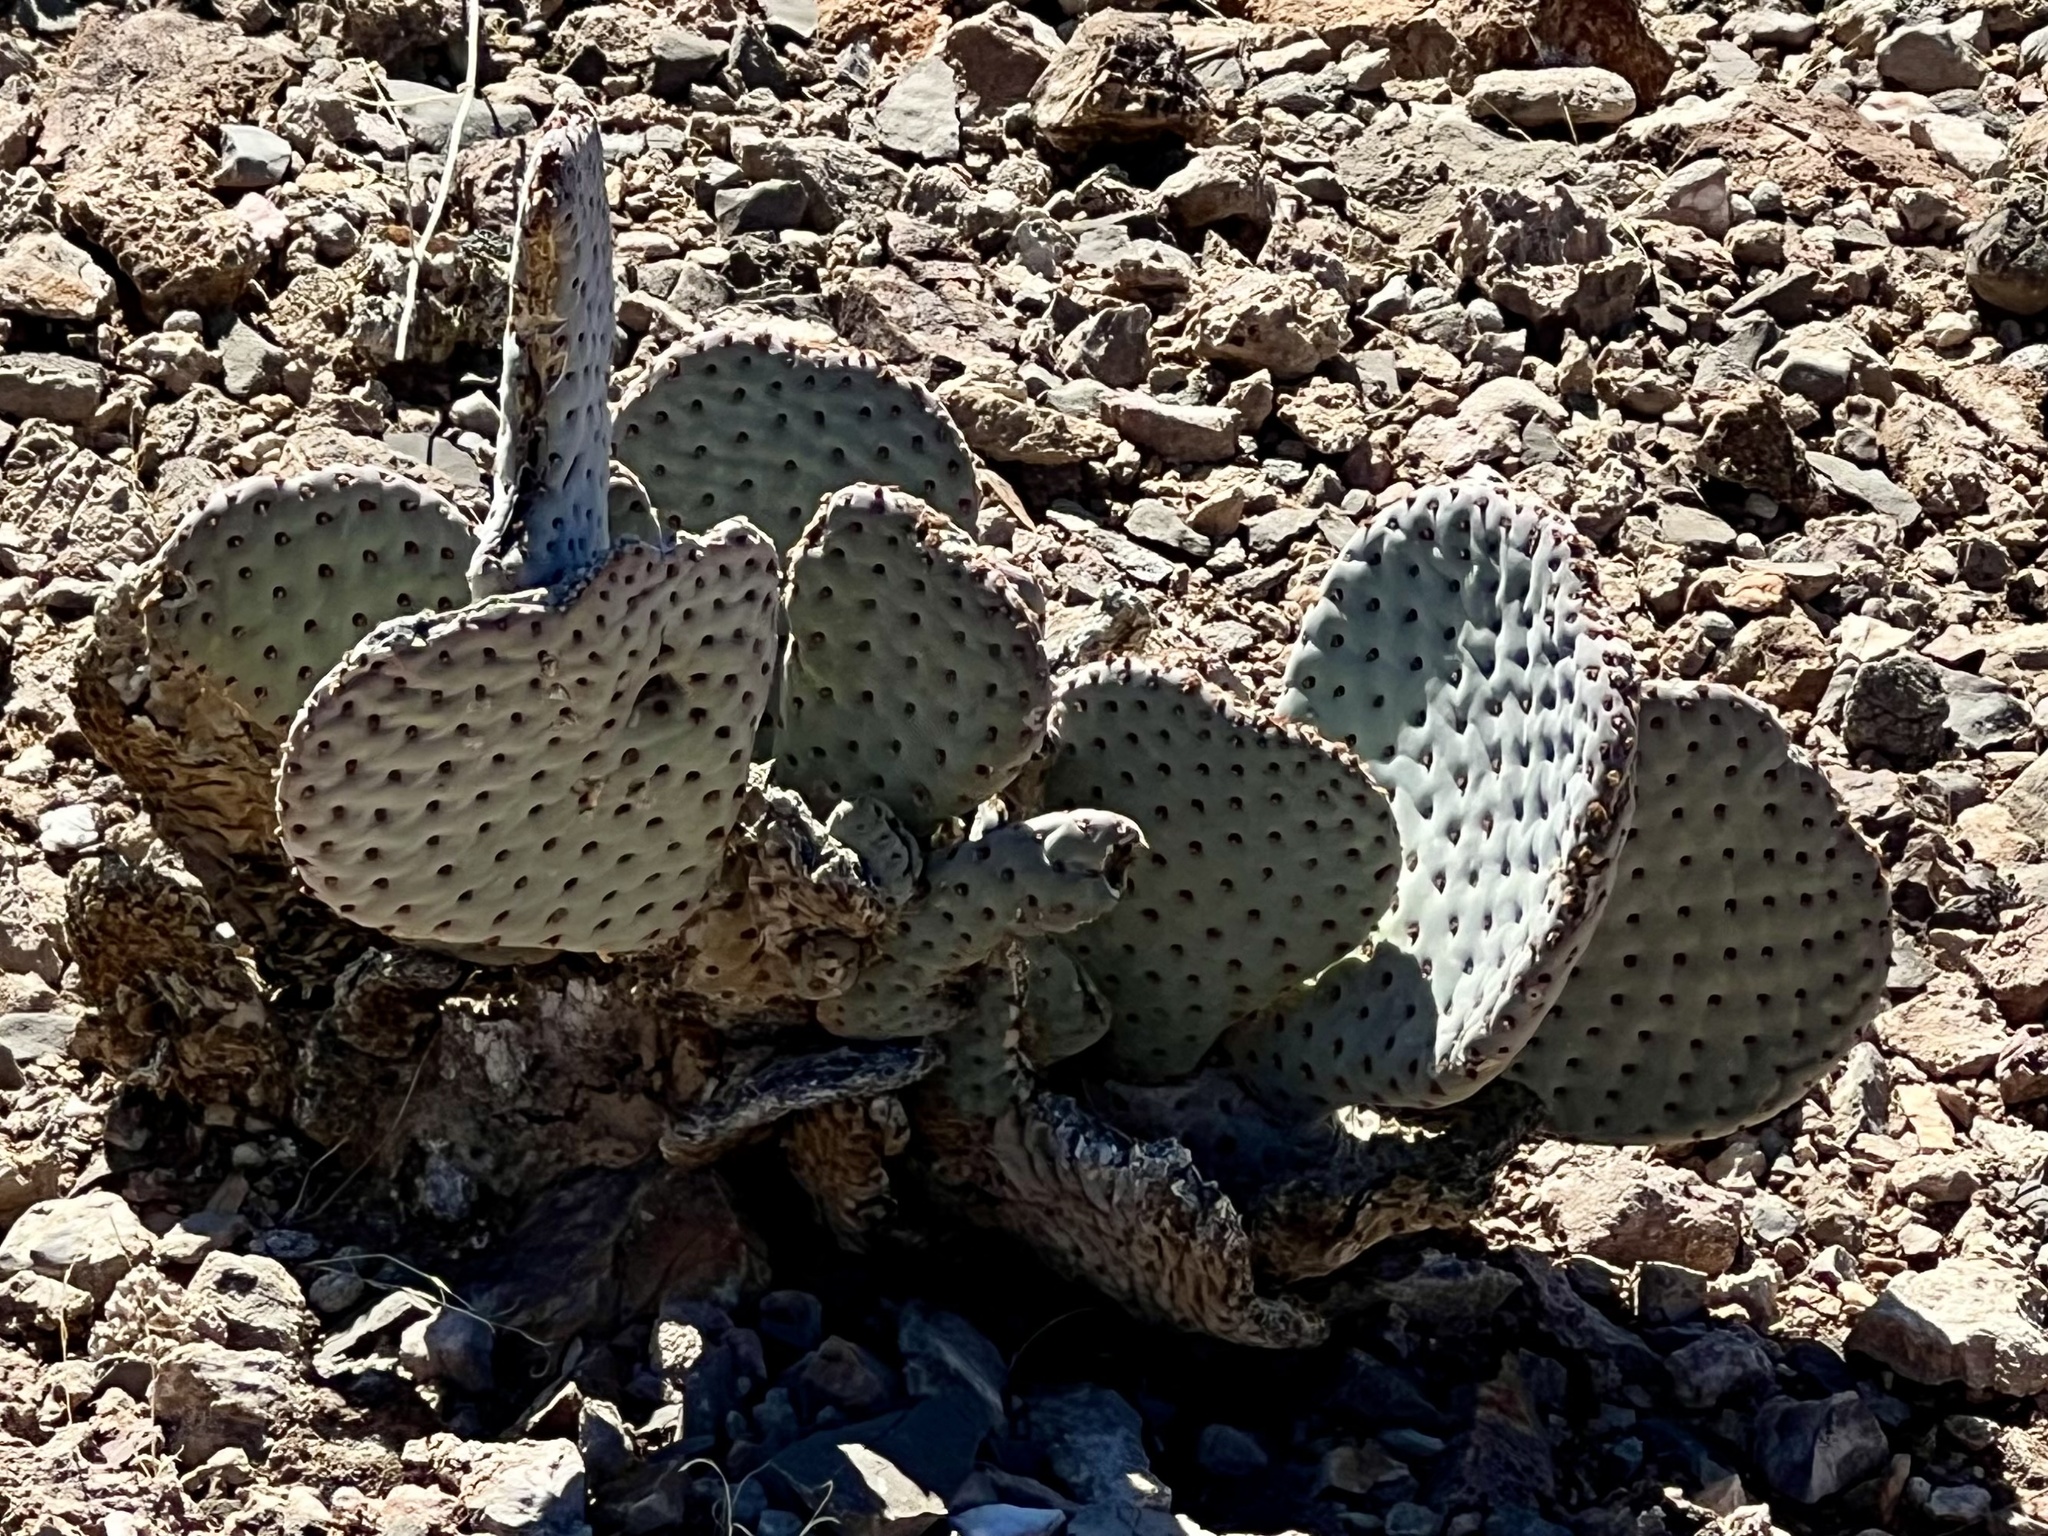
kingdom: Plantae
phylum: Tracheophyta
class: Magnoliopsida
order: Caryophyllales
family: Cactaceae
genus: Opuntia
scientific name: Opuntia basilaris
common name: Beavertail prickly-pear
